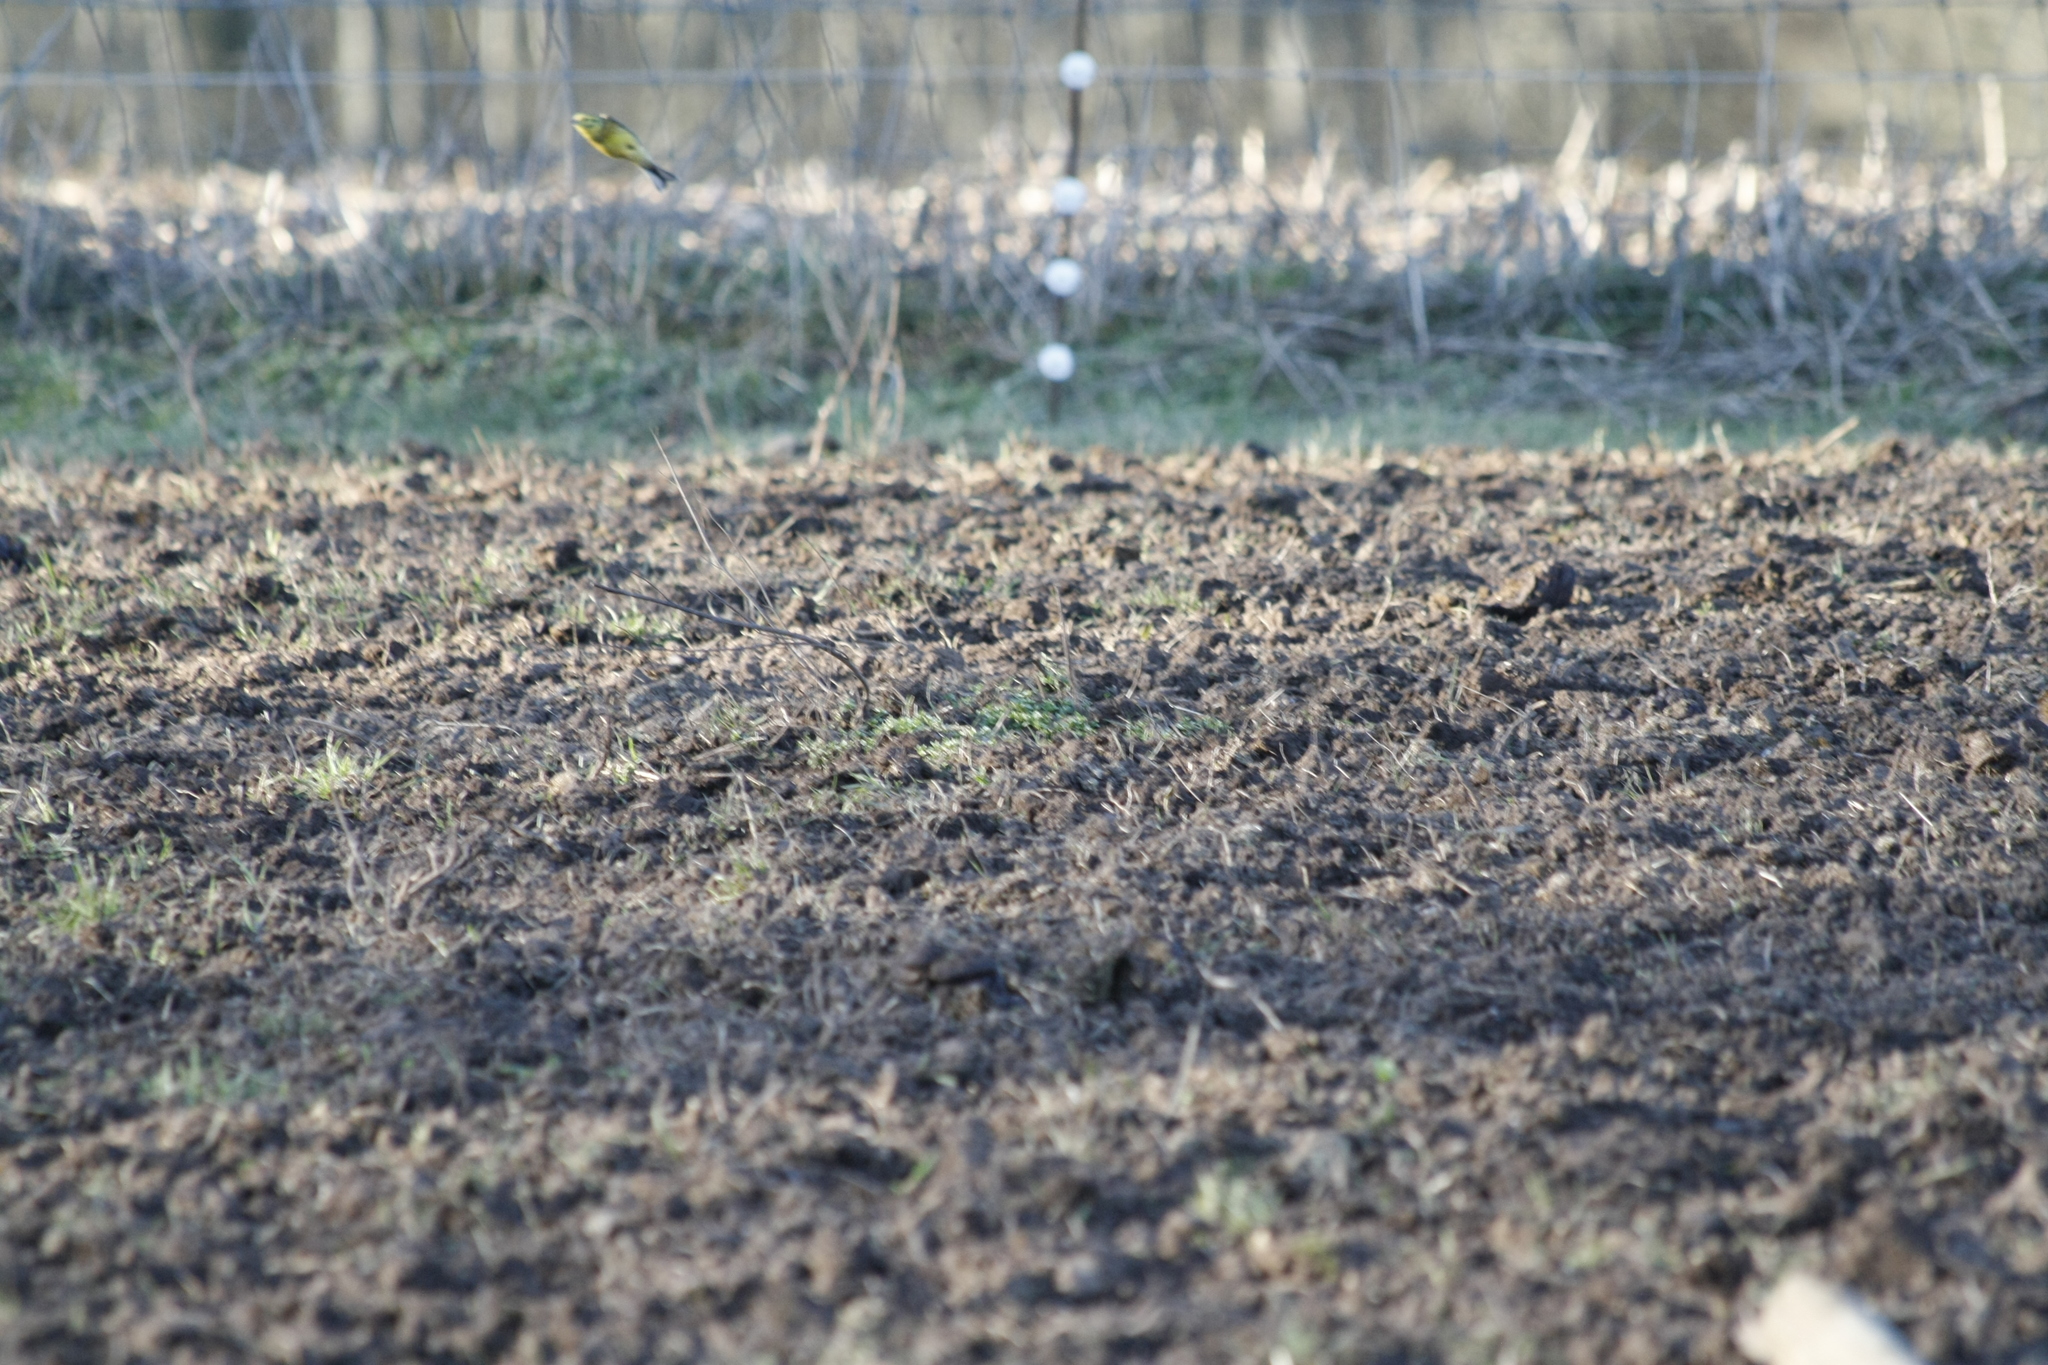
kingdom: Animalia
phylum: Chordata
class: Aves
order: Passeriformes
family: Emberizidae
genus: Emberiza
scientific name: Emberiza citrinella
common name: Yellowhammer
